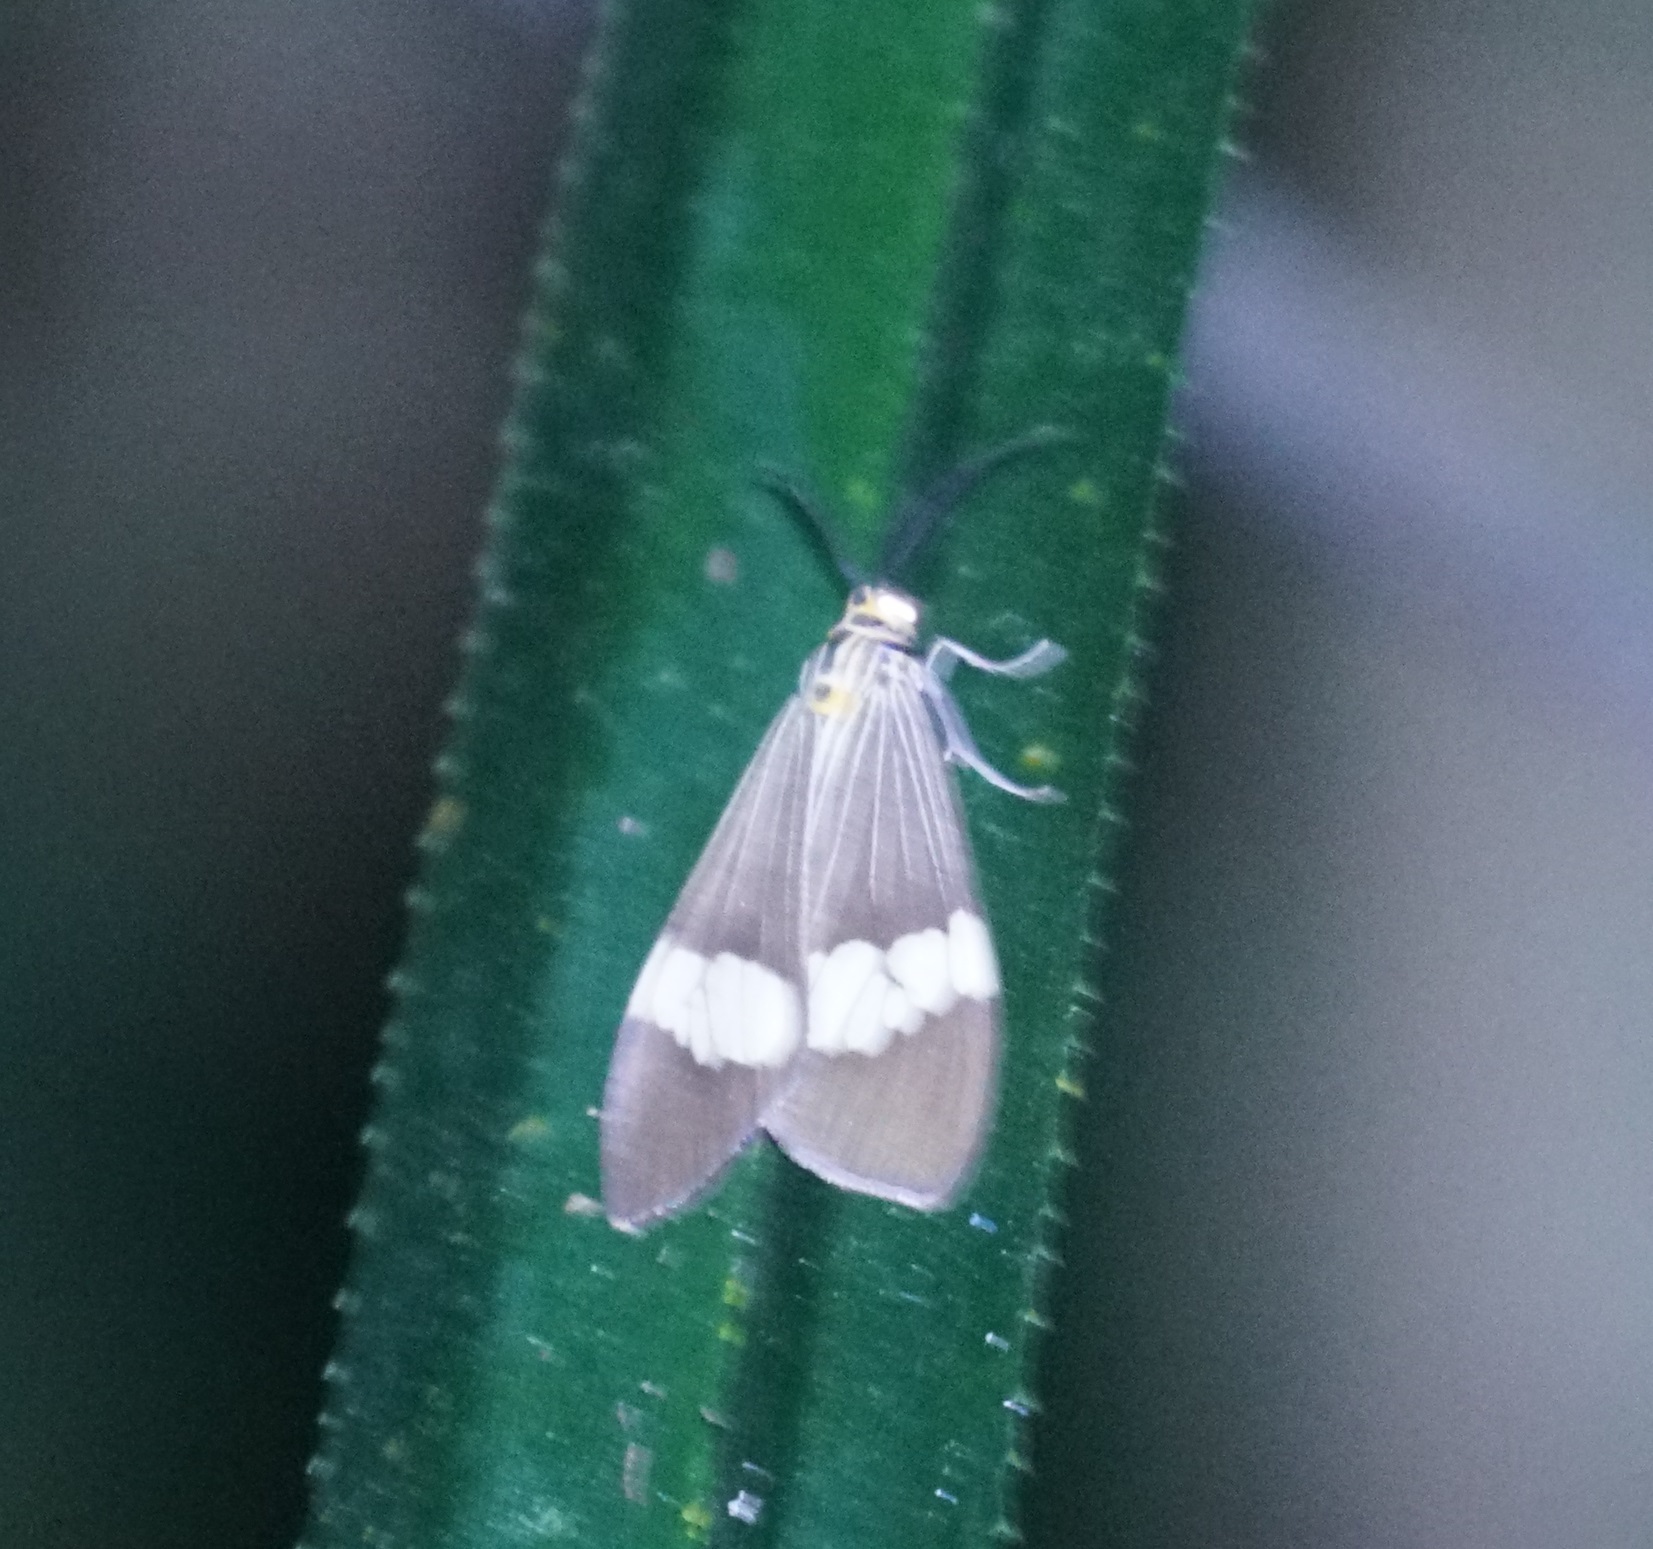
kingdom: Animalia
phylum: Arthropoda
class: Insecta
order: Lepidoptera
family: Erebidae
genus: Nyctemera
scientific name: Nyctemera baulus
